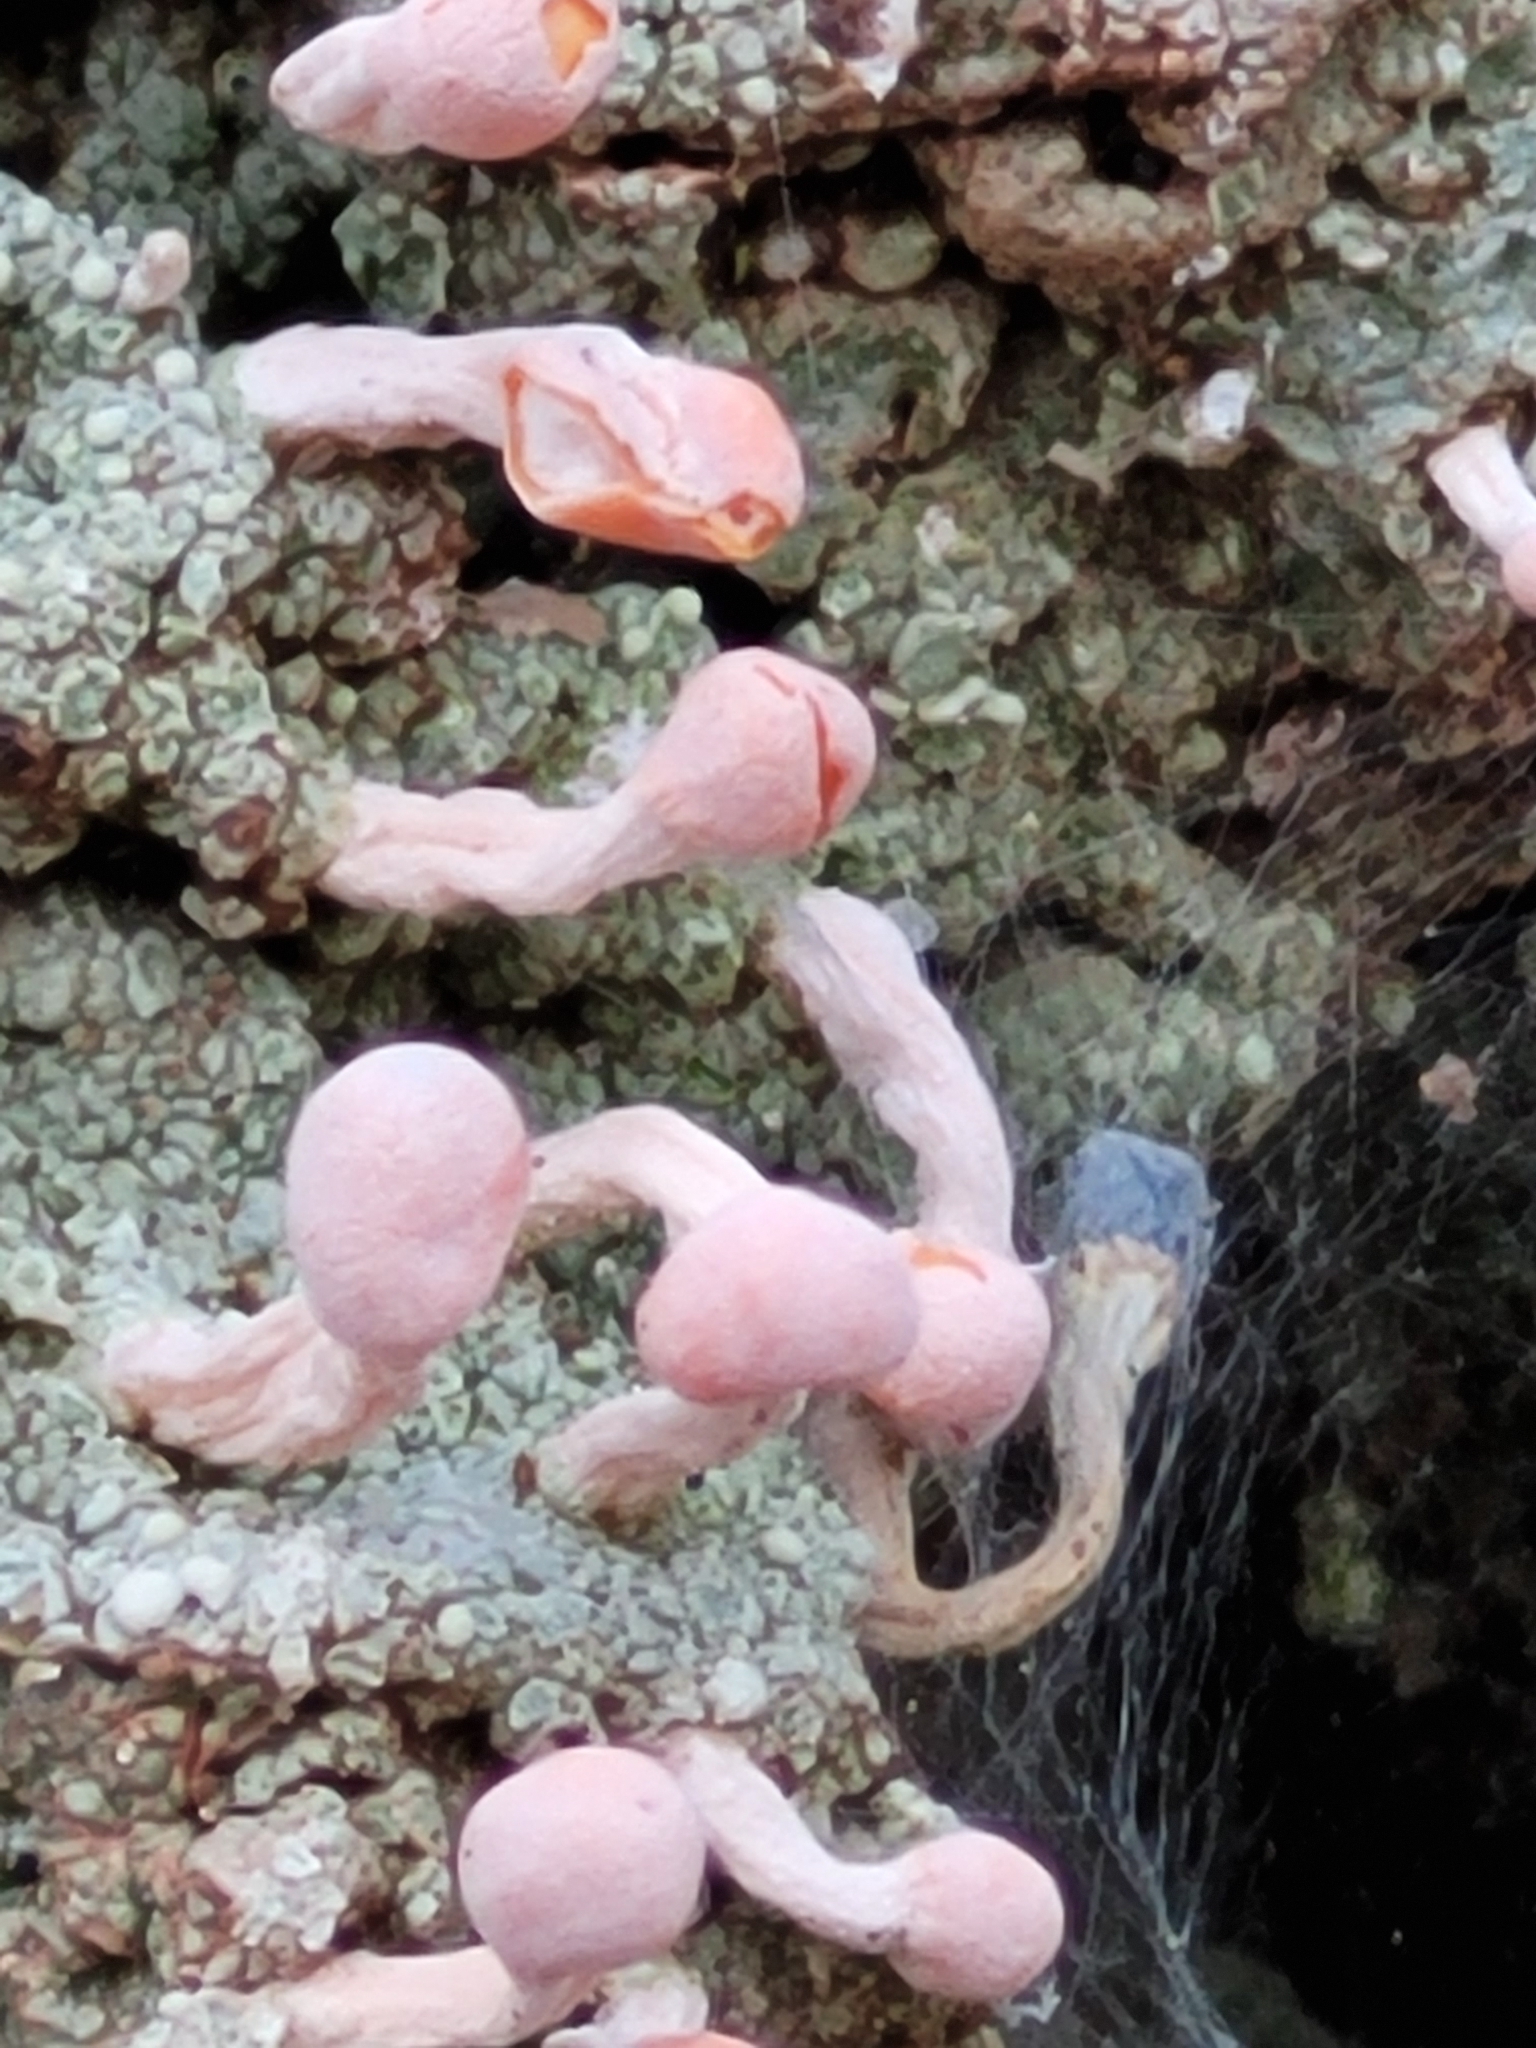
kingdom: Fungi
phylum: Ascomycota
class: Lecanoromycetes
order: Pertusariales
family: Icmadophilaceae
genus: Dibaeis
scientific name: Dibaeis baeomyces
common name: Pink earth lichen
